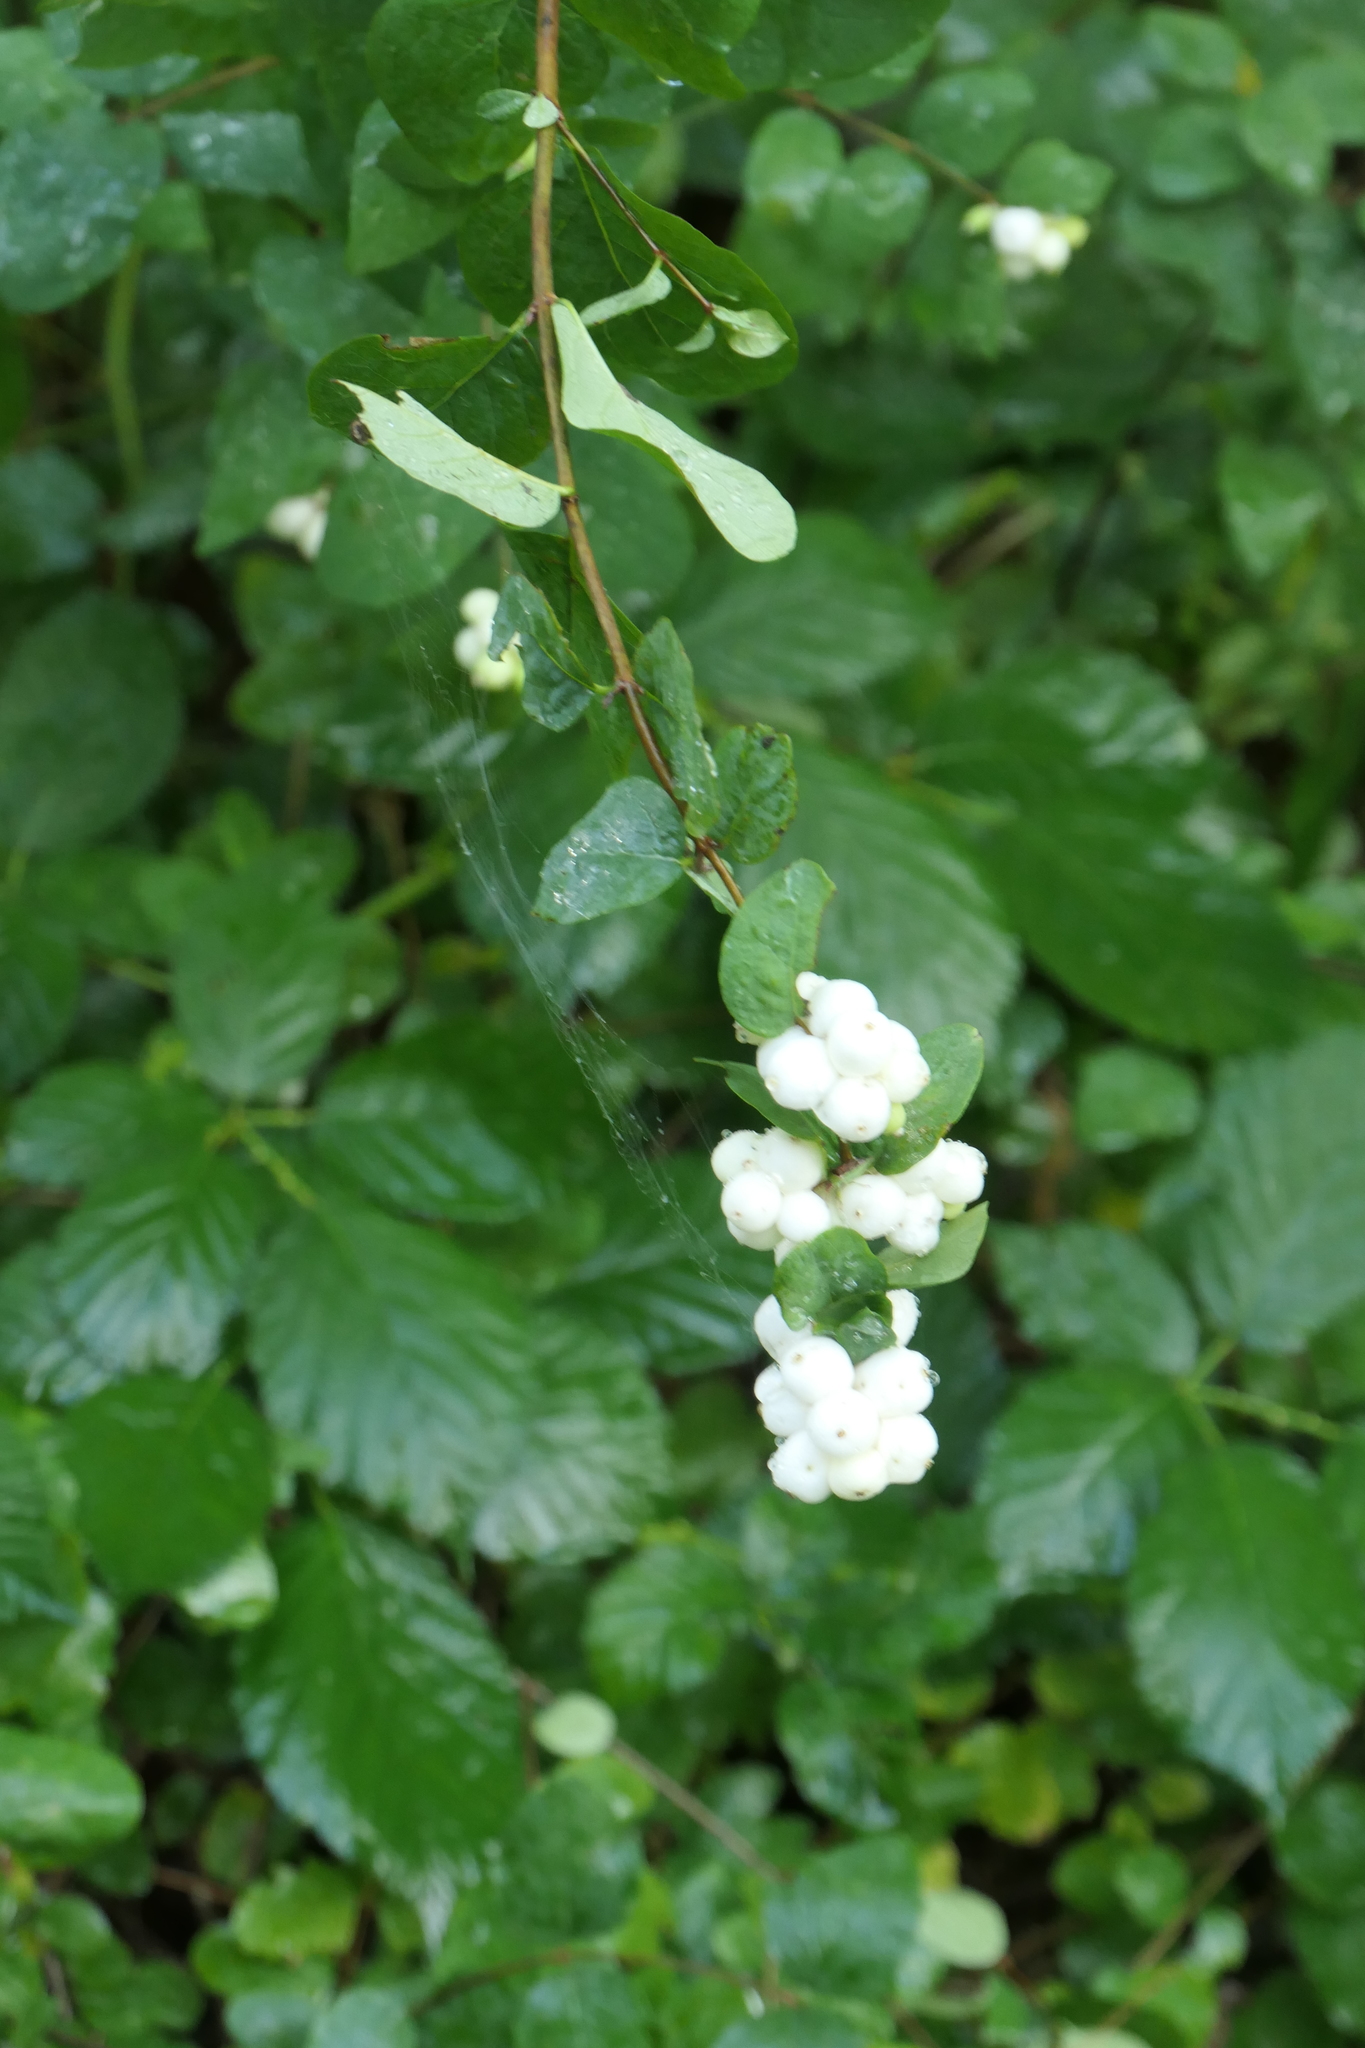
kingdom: Plantae
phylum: Tracheophyta
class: Magnoliopsida
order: Dipsacales
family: Caprifoliaceae
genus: Symphoricarpos
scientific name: Symphoricarpos albus
